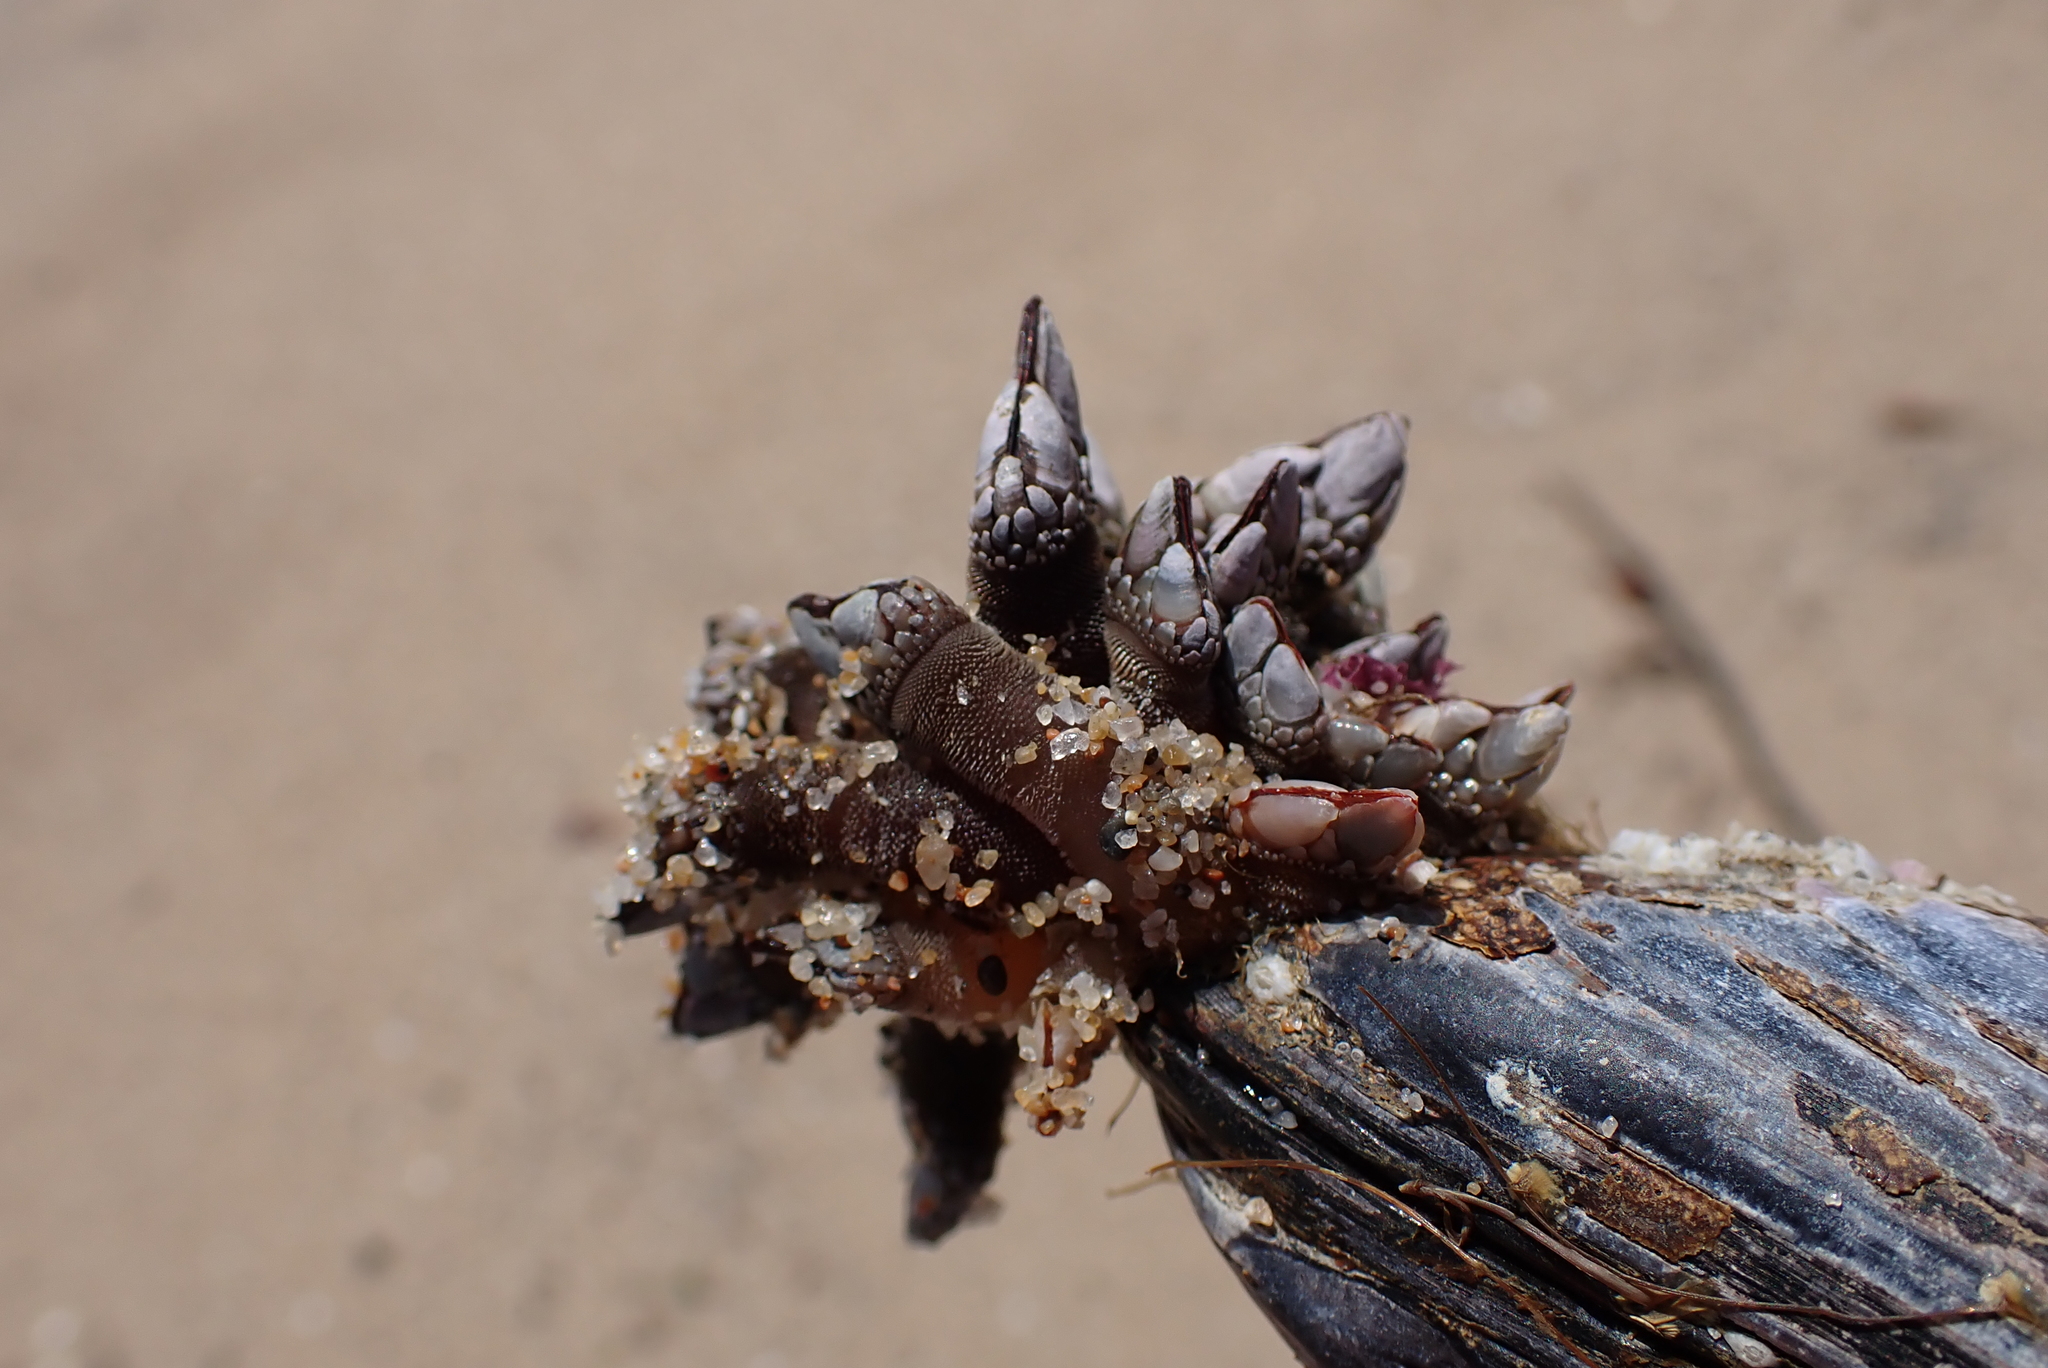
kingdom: Animalia
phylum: Arthropoda
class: Maxillopoda
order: Pedunculata
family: Pollicipedidae
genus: Pollicipes
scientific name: Pollicipes polymerus
